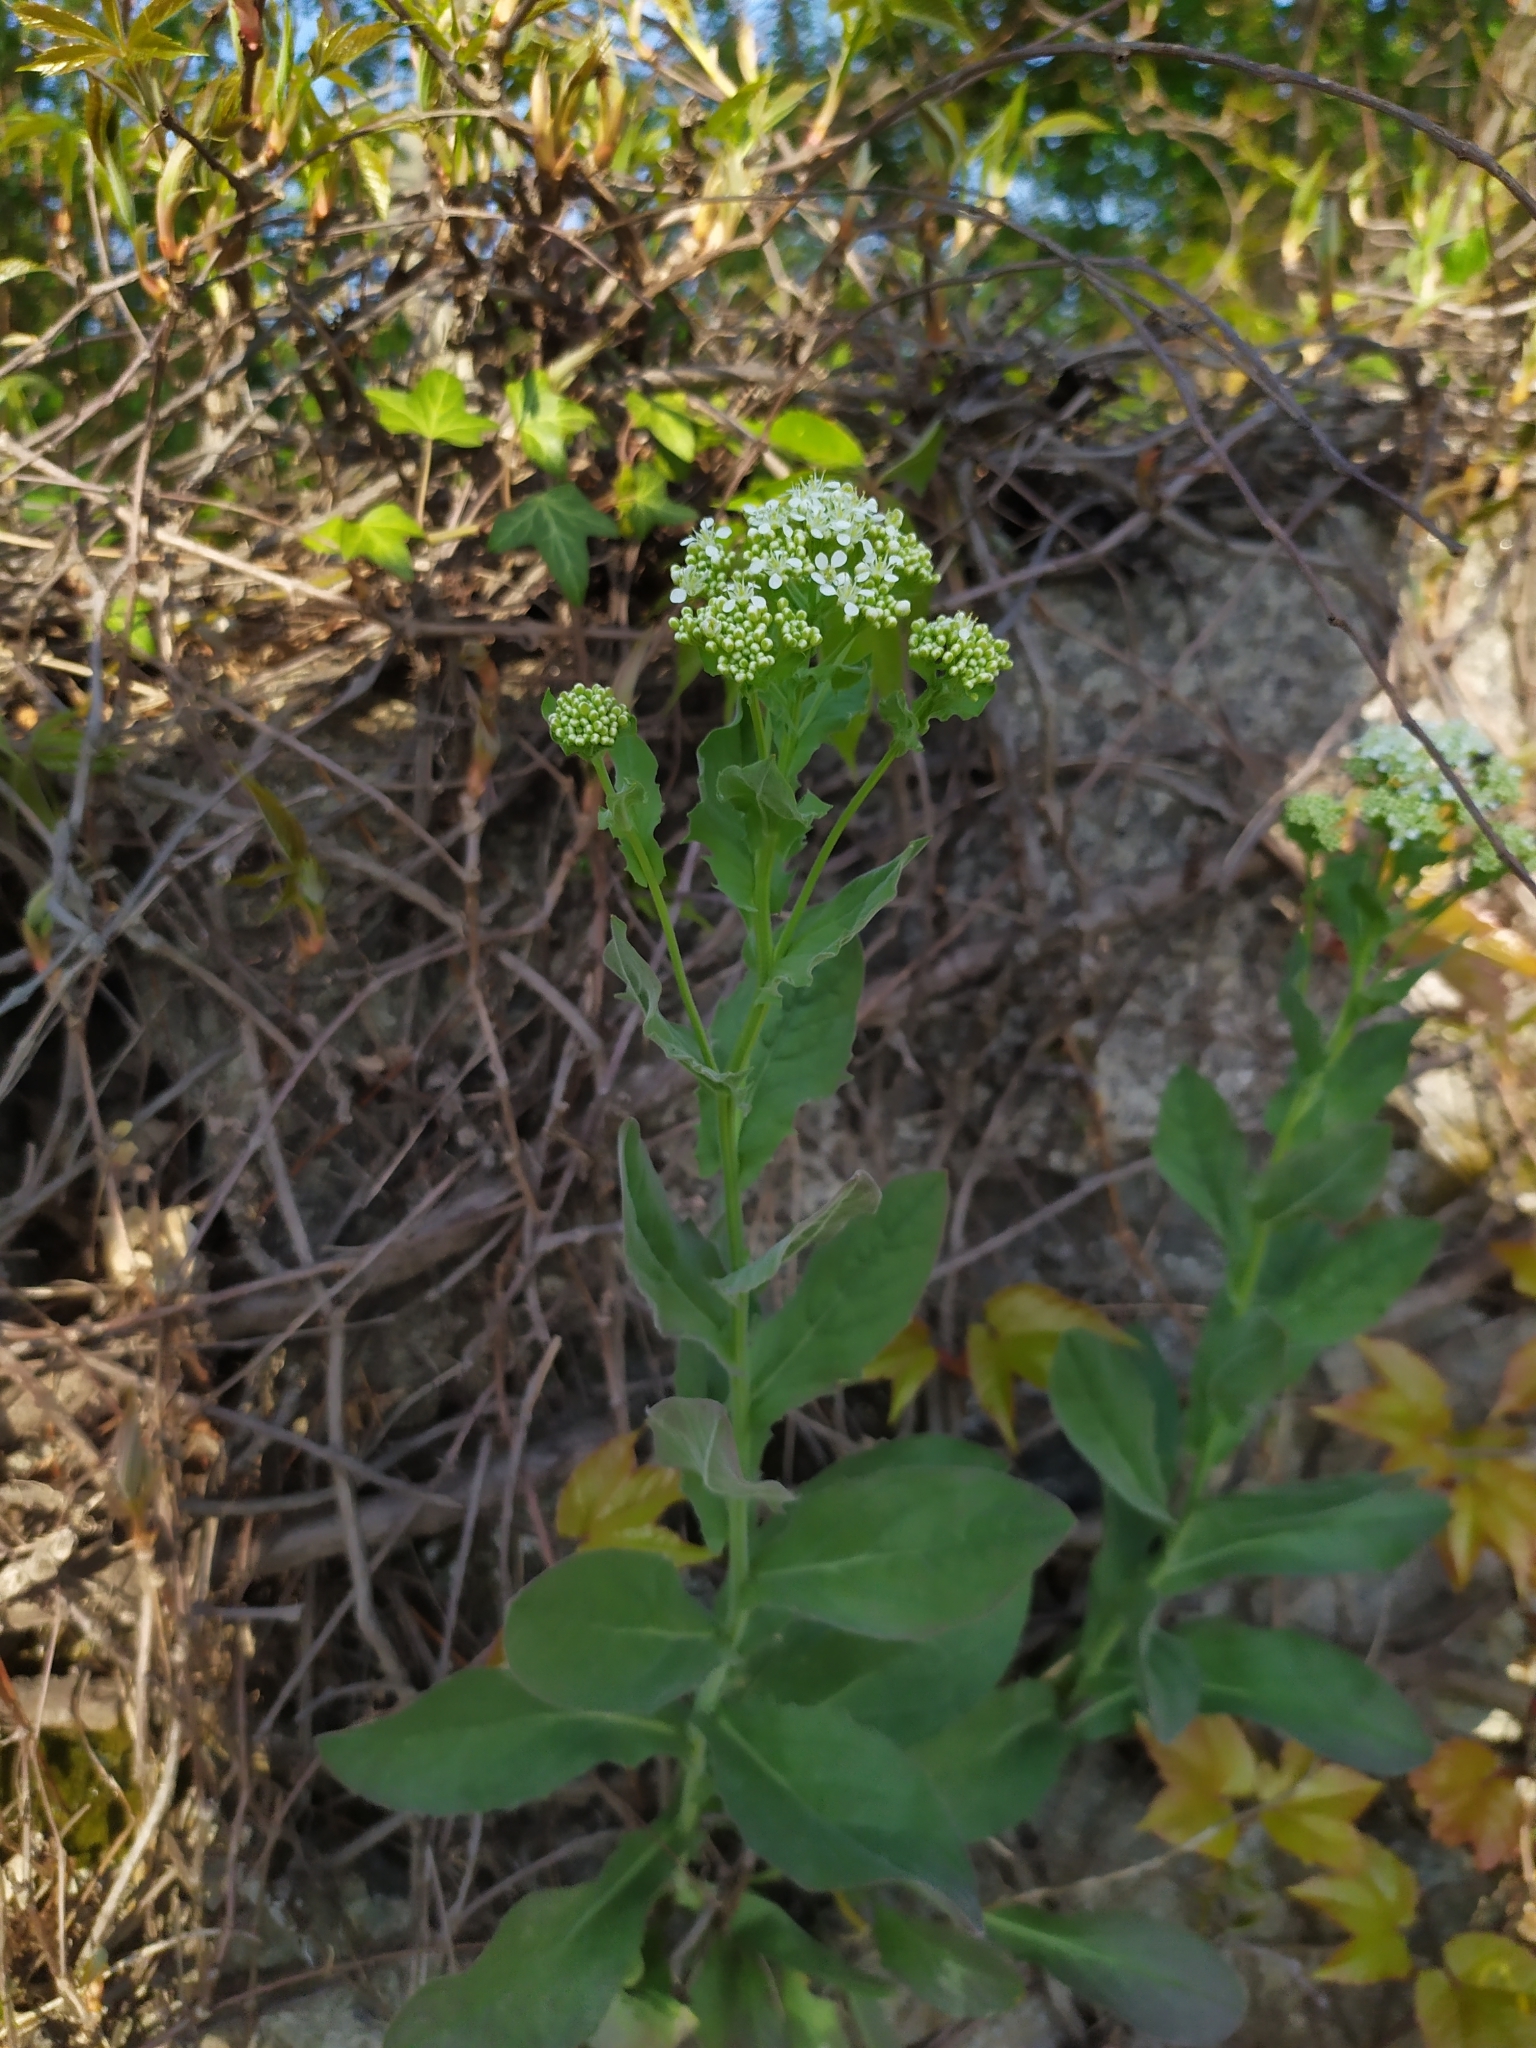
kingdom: Plantae
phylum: Tracheophyta
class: Magnoliopsida
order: Brassicales
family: Brassicaceae
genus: Lepidium
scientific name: Lepidium draba
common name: Hoary cress
